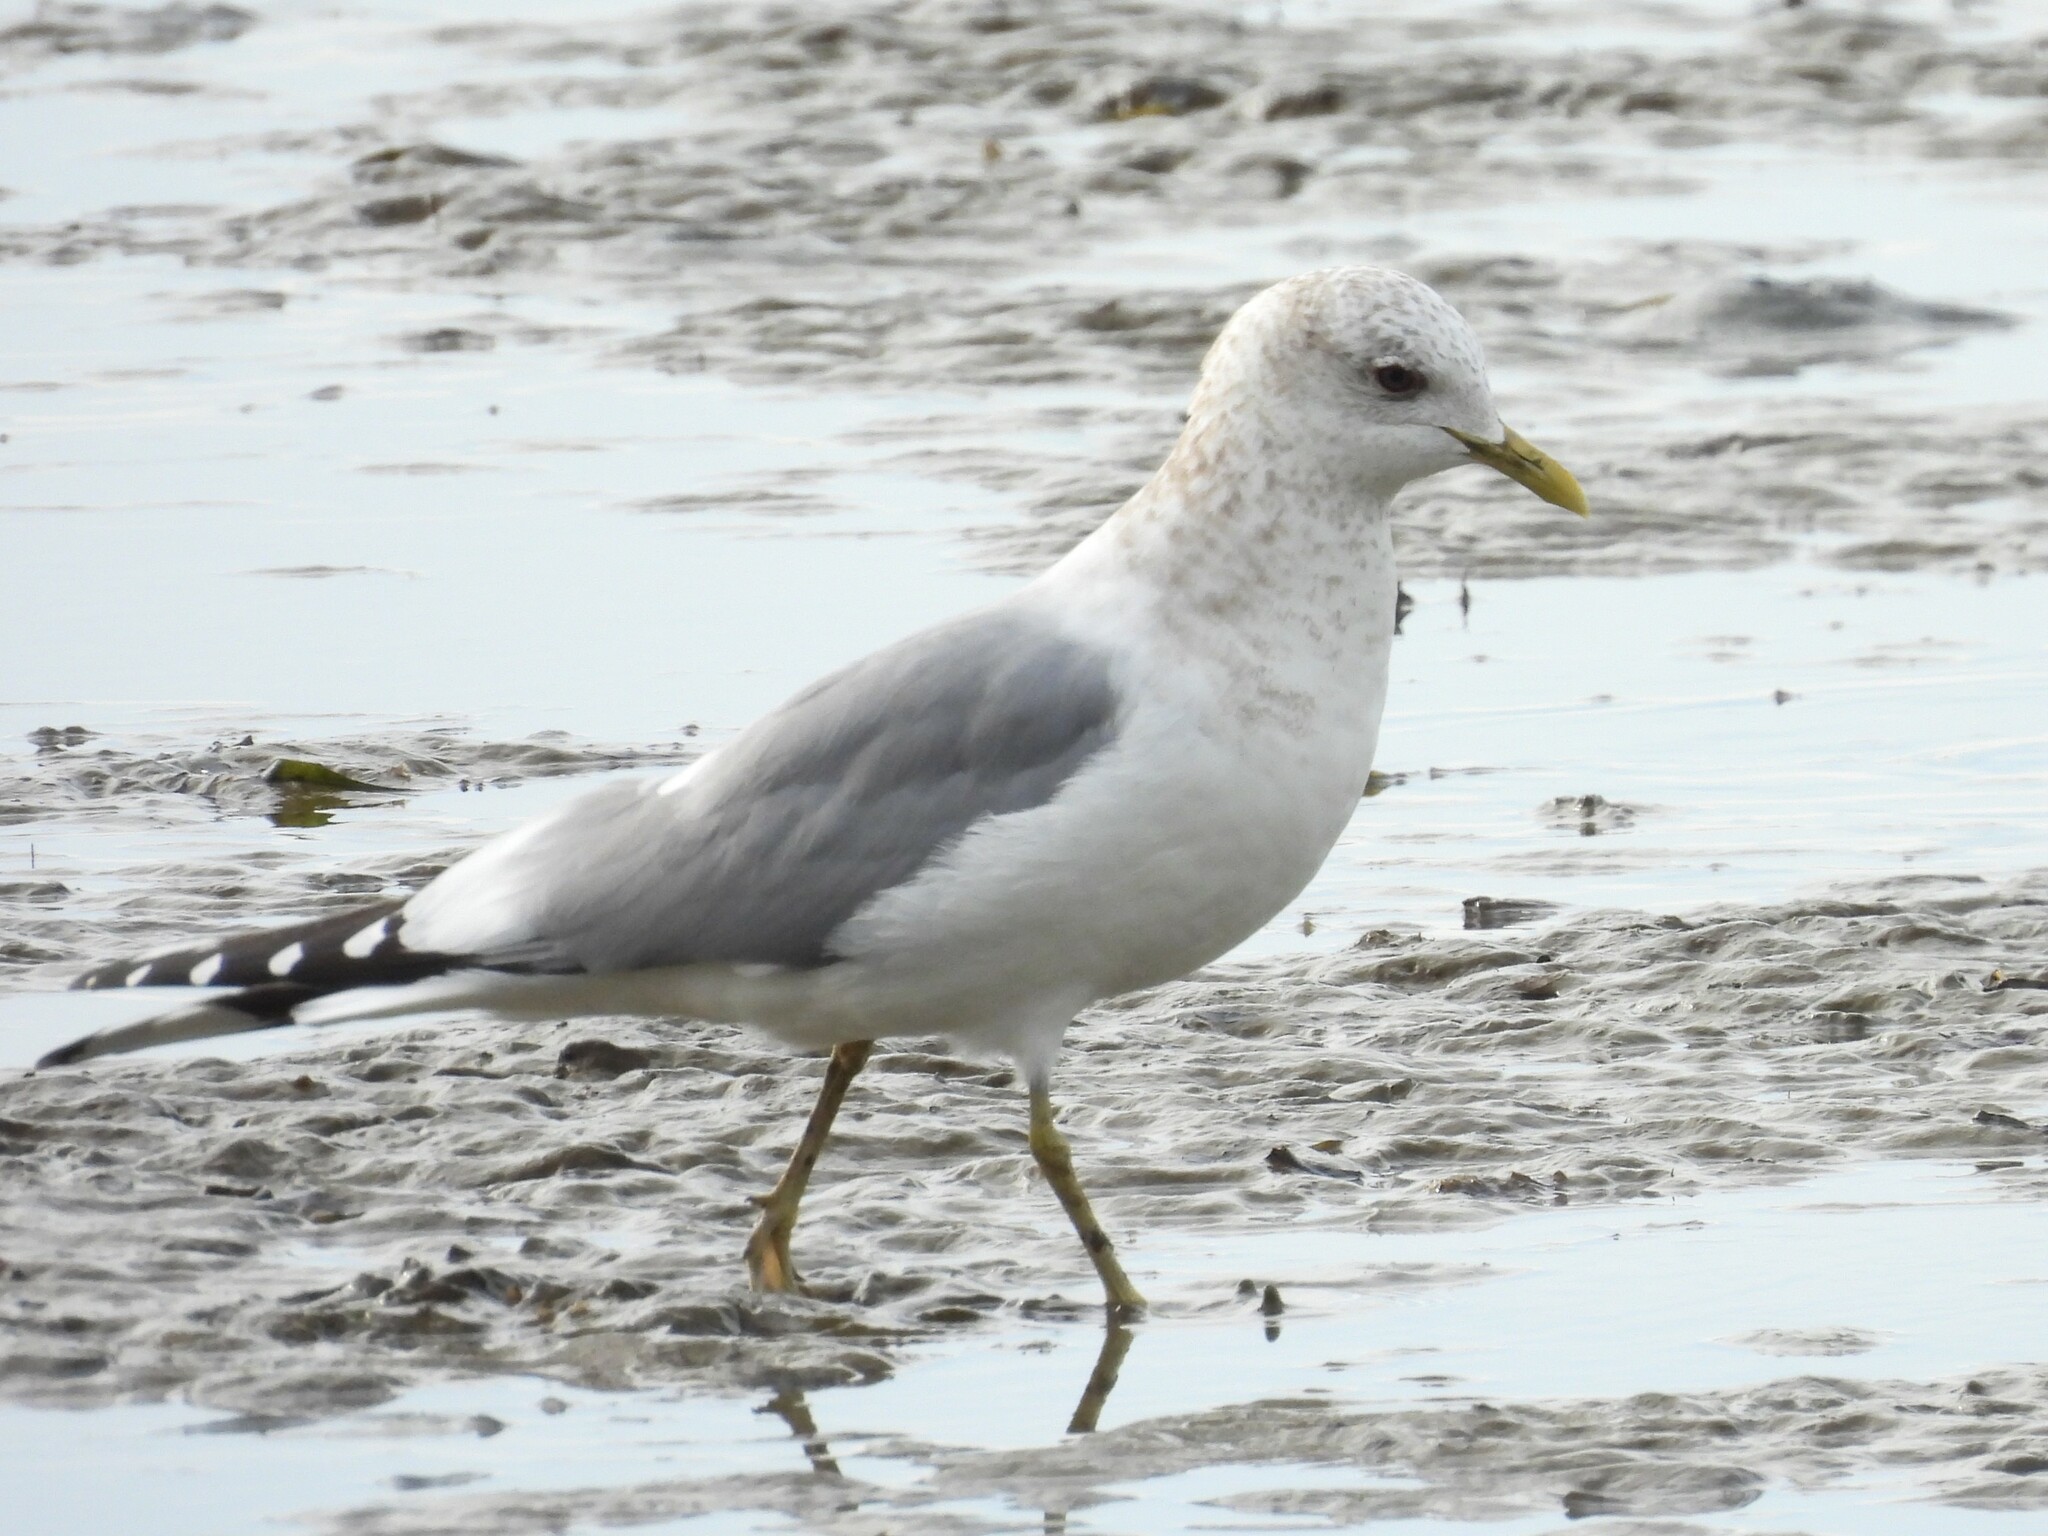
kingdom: Animalia
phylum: Chordata
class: Aves
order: Charadriiformes
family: Laridae
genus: Larus
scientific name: Larus brachyrhynchus
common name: Short-billed gull
